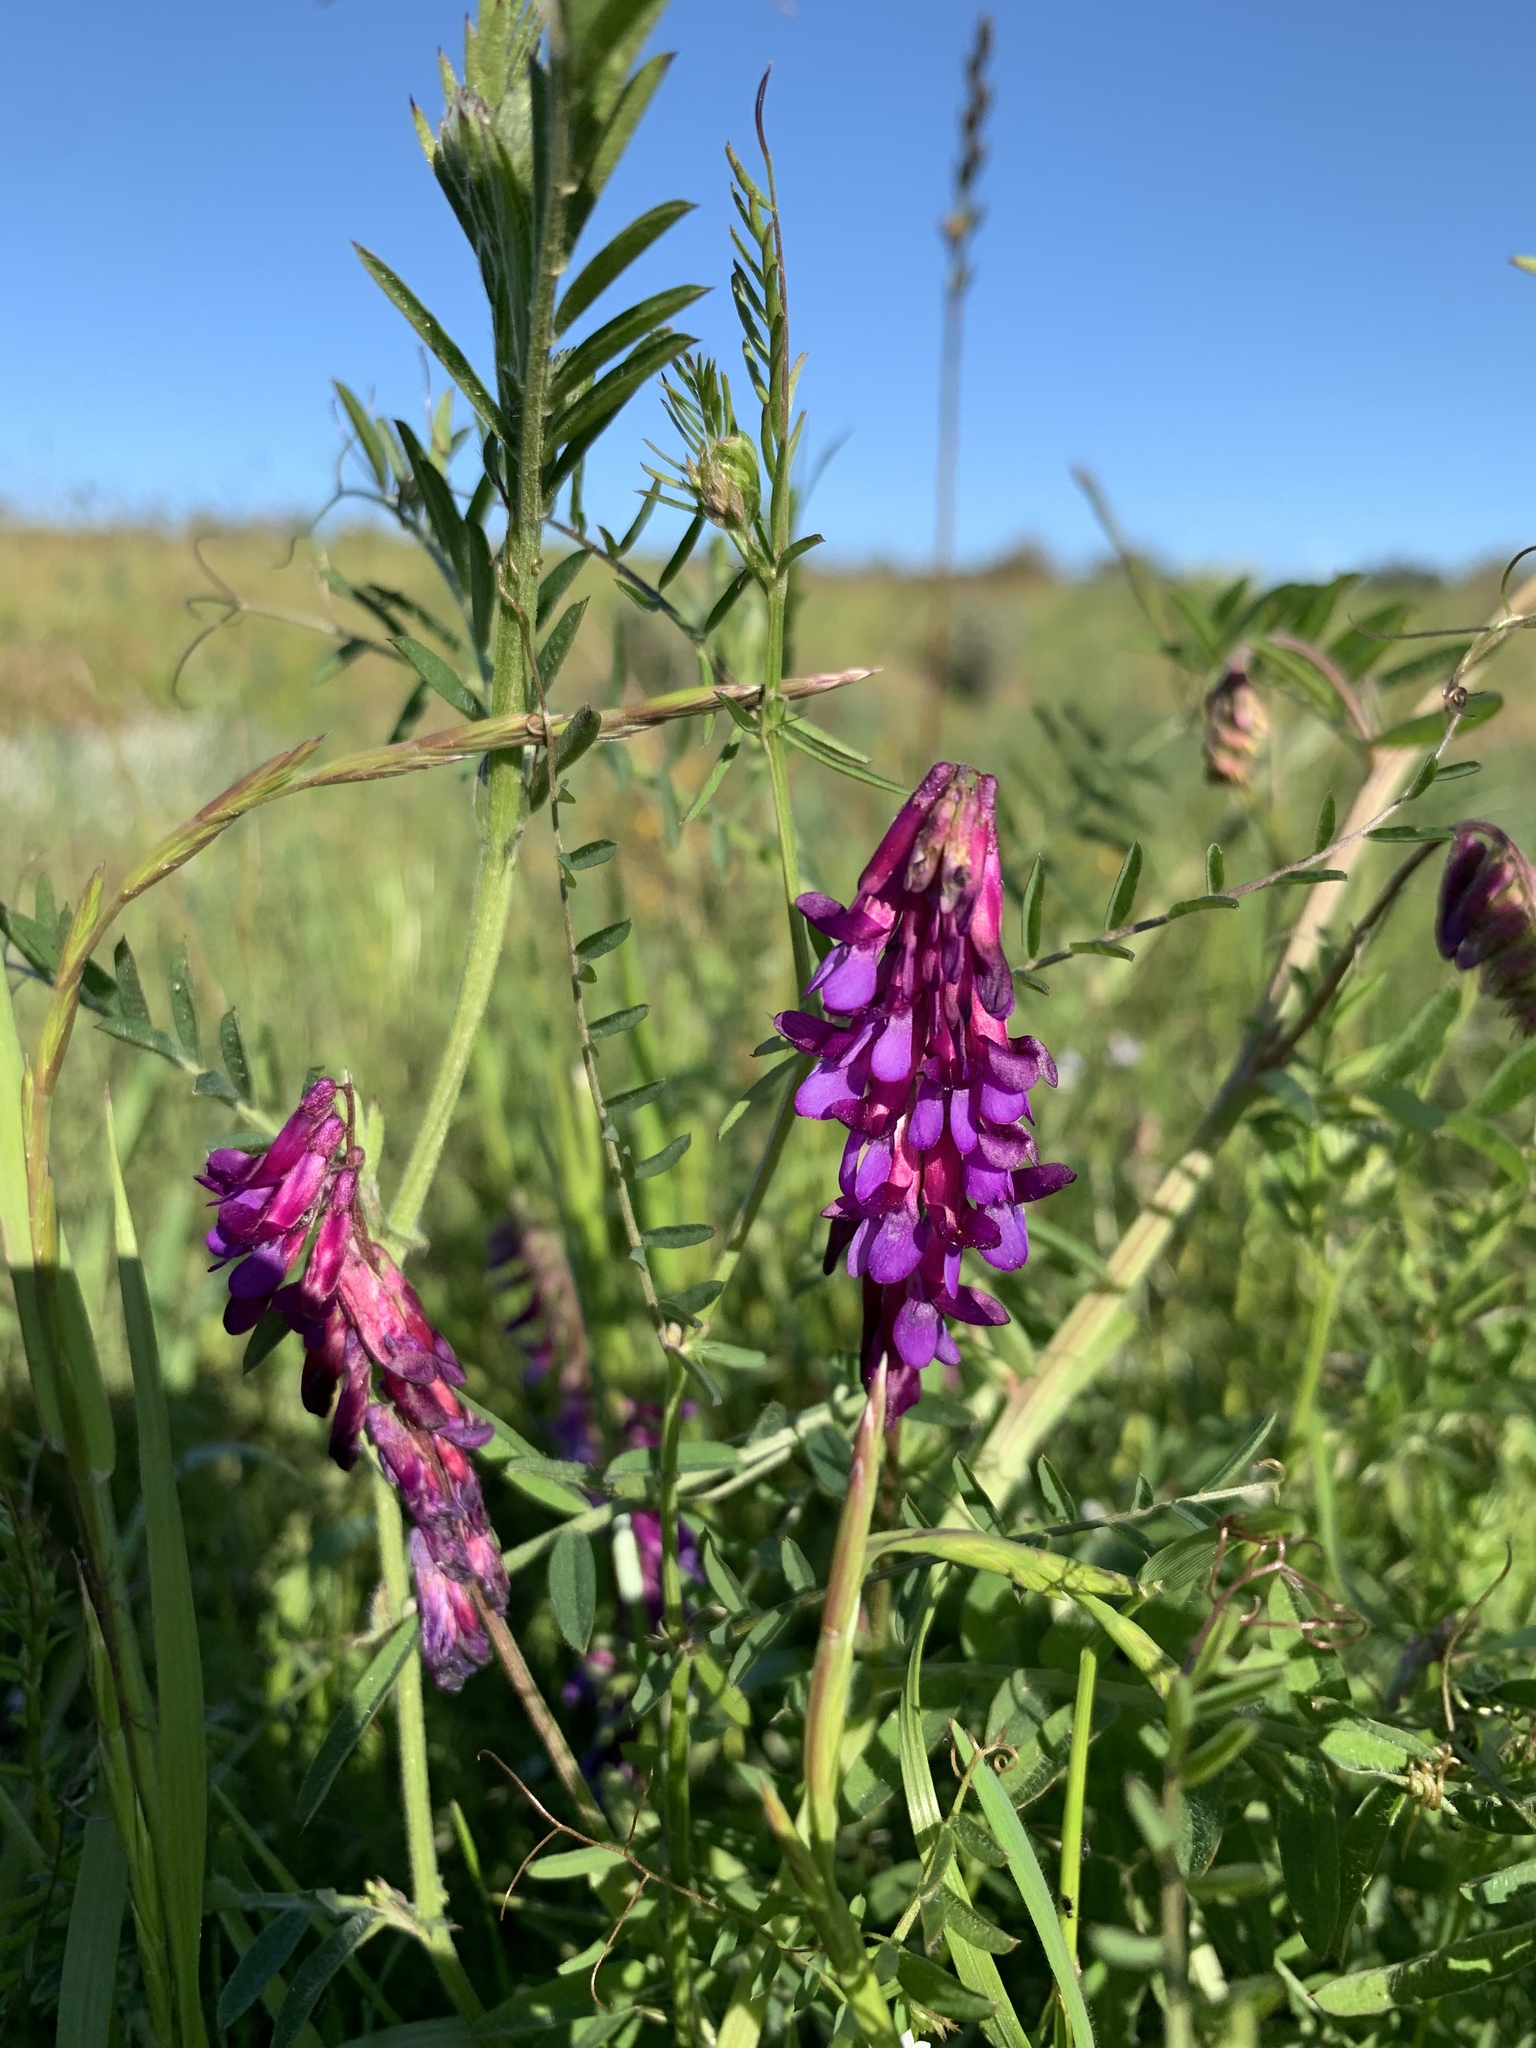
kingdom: Plantae
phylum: Tracheophyta
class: Magnoliopsida
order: Fabales
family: Fabaceae
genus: Vicia
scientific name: Vicia eriocarpa
